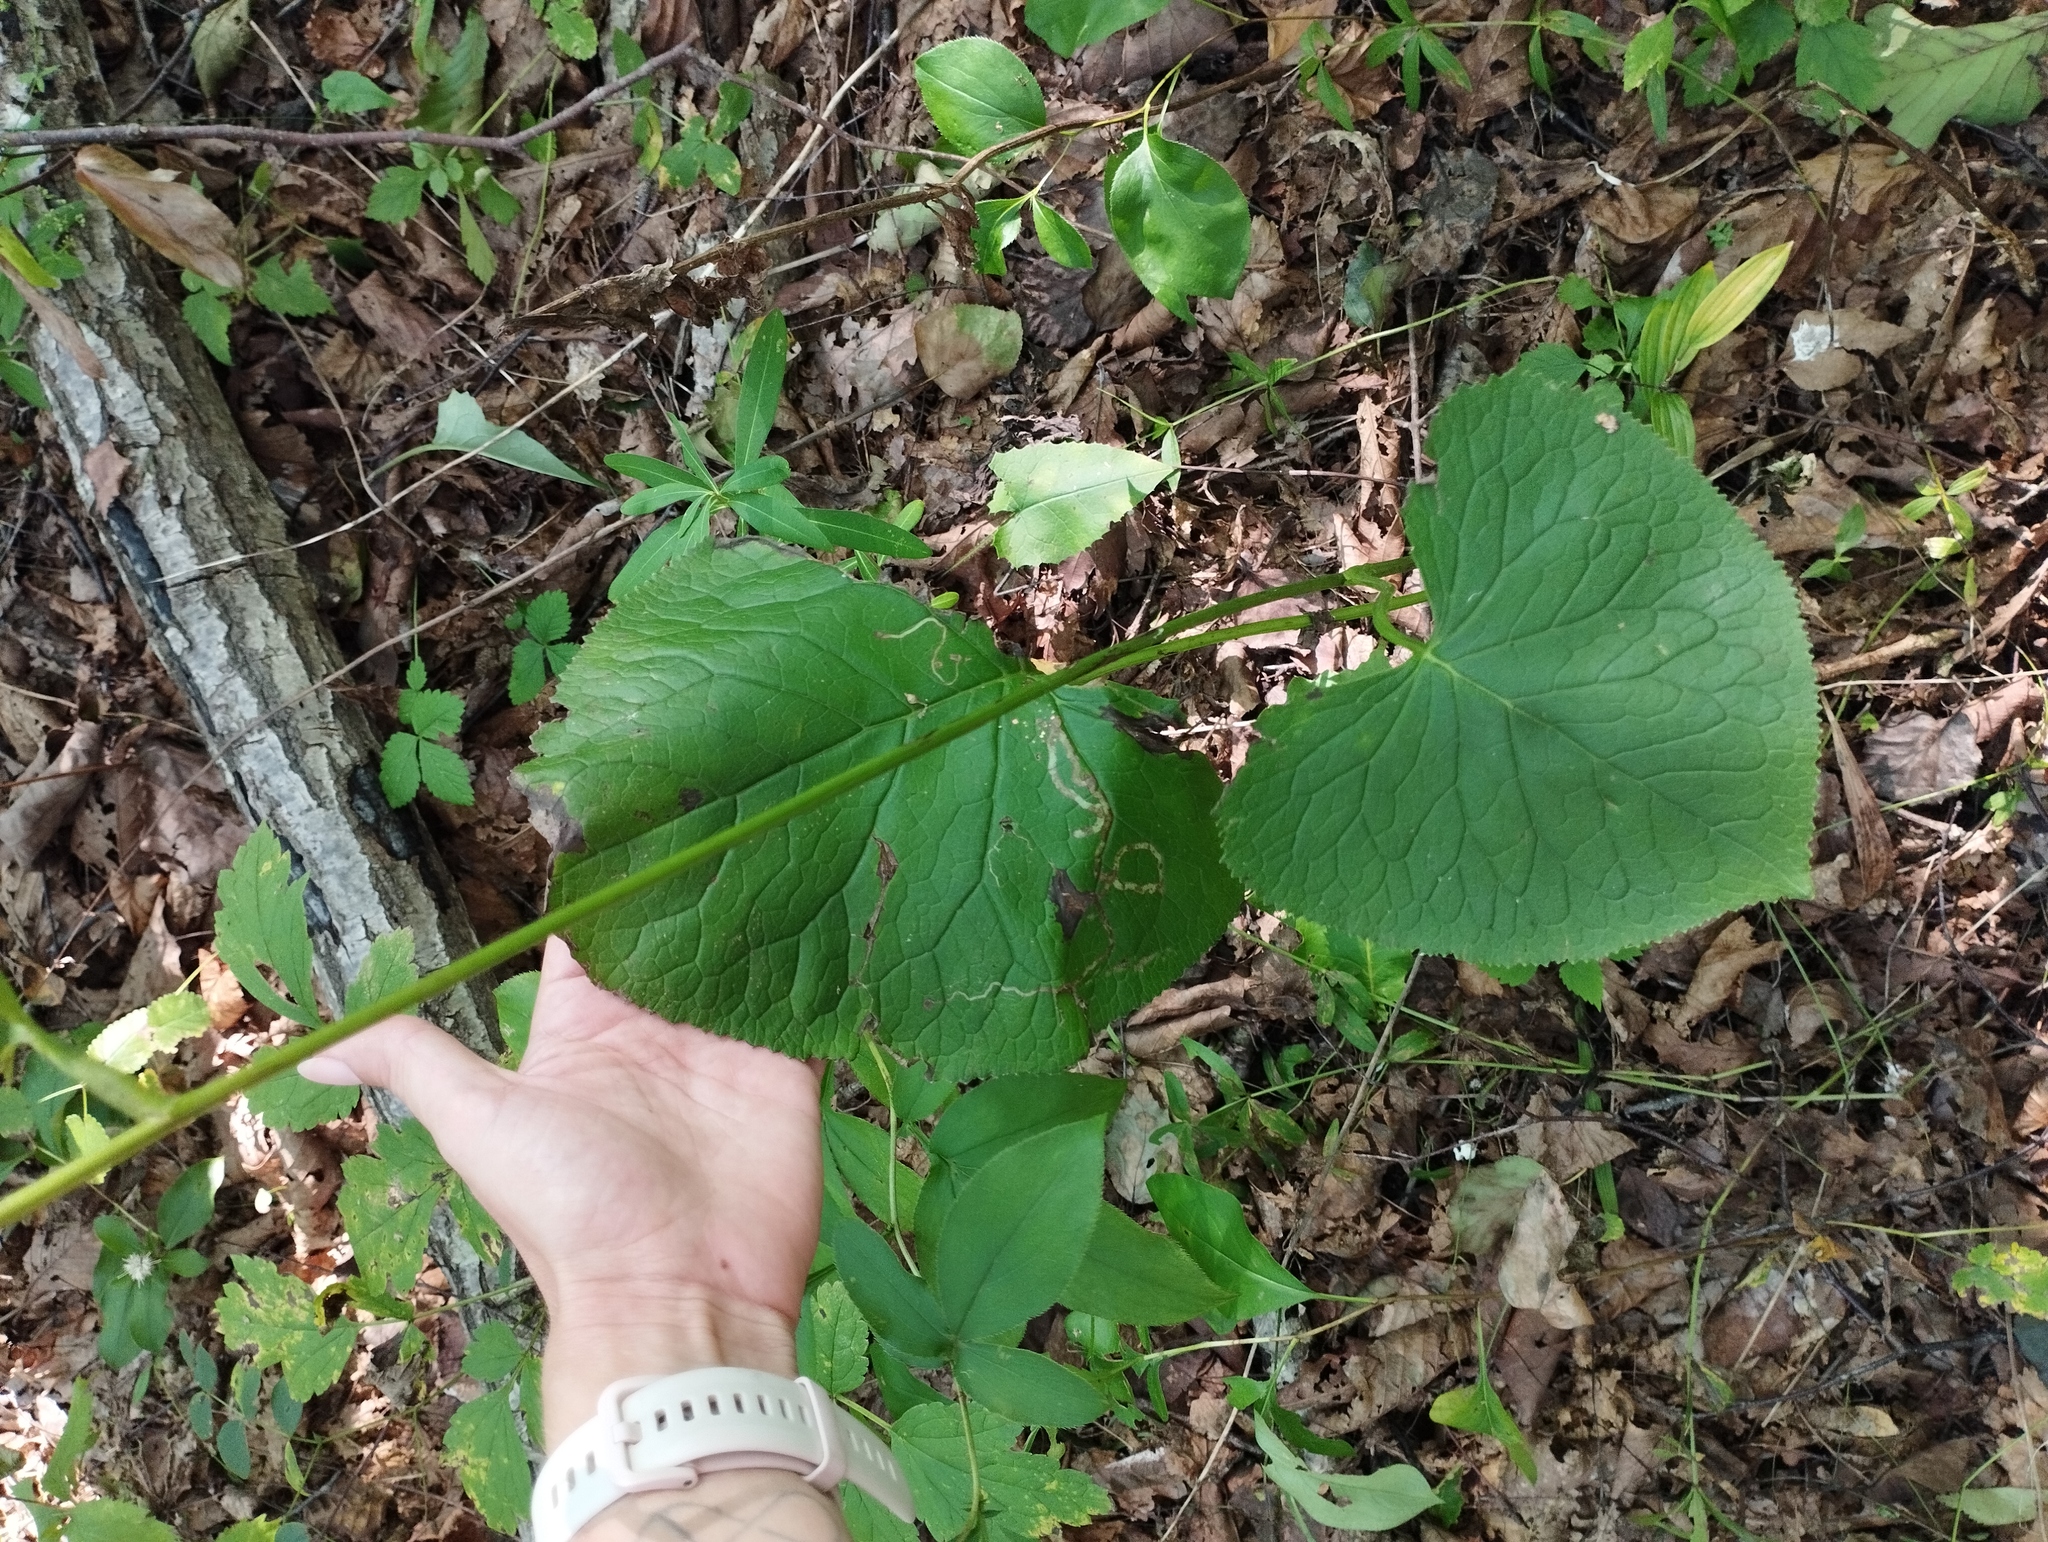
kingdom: Plantae
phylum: Tracheophyta
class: Magnoliopsida
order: Asterales
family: Asteraceae
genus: Ligularia
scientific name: Ligularia sachalinensis
